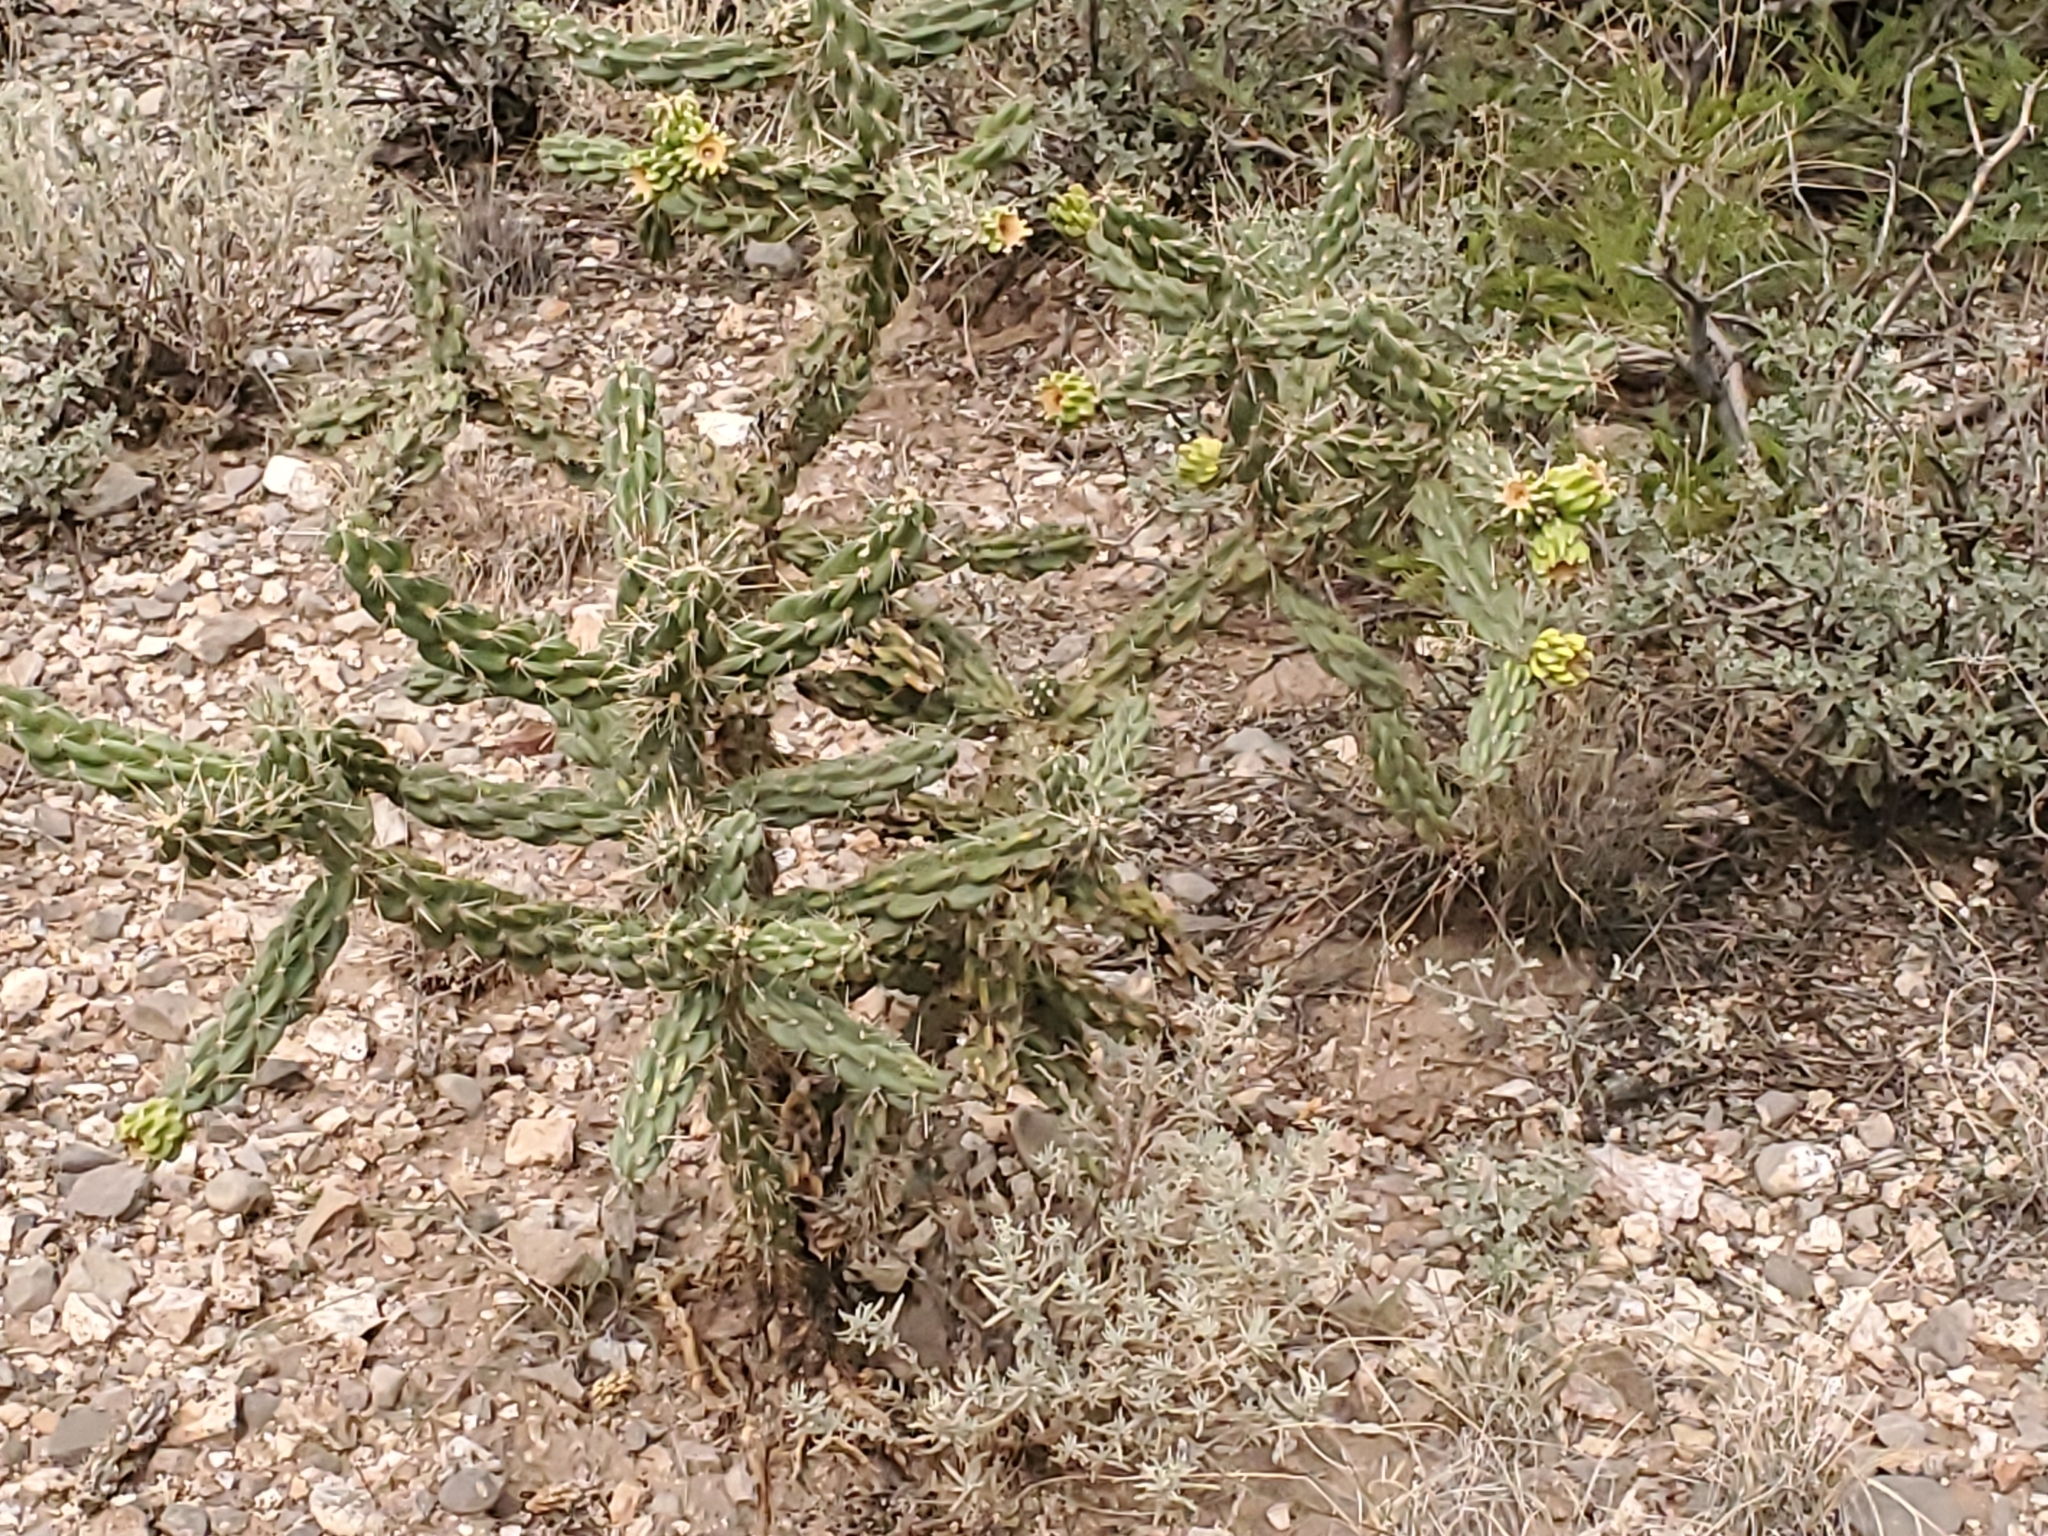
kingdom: Plantae
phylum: Tracheophyta
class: Magnoliopsida
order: Caryophyllales
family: Cactaceae
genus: Cylindropuntia
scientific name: Cylindropuntia imbricata
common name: Candelabrum cactus
